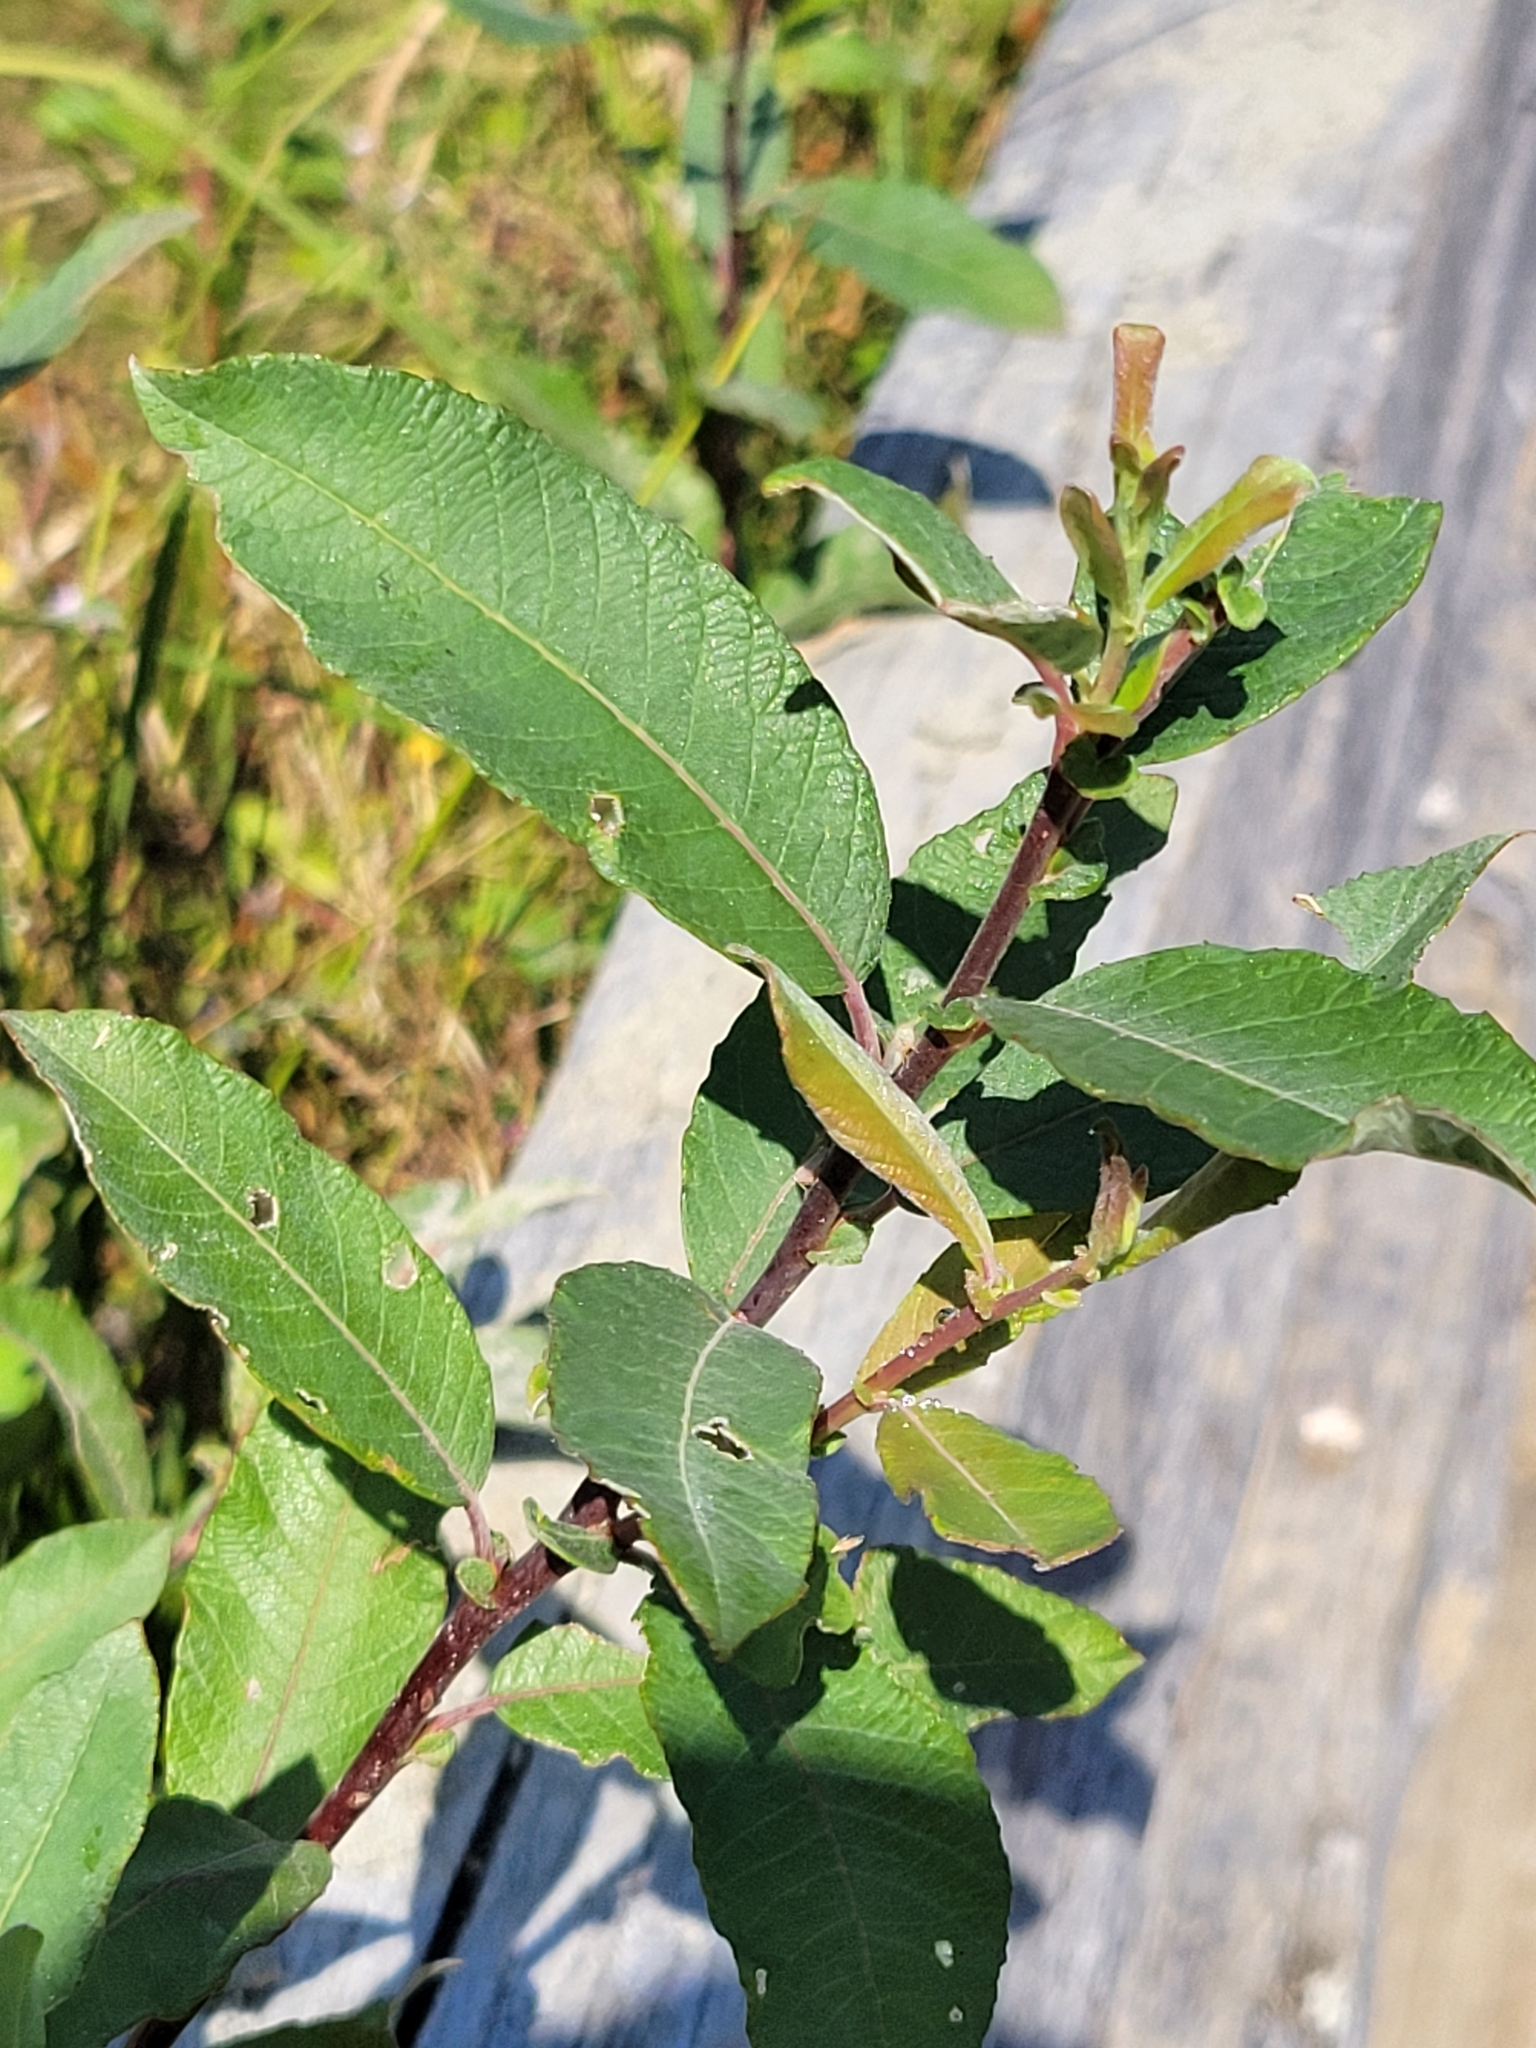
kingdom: Plantae
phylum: Tracheophyta
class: Magnoliopsida
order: Malpighiales
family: Salicaceae
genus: Salix
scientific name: Salix sitchensis
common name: Sitka willow
